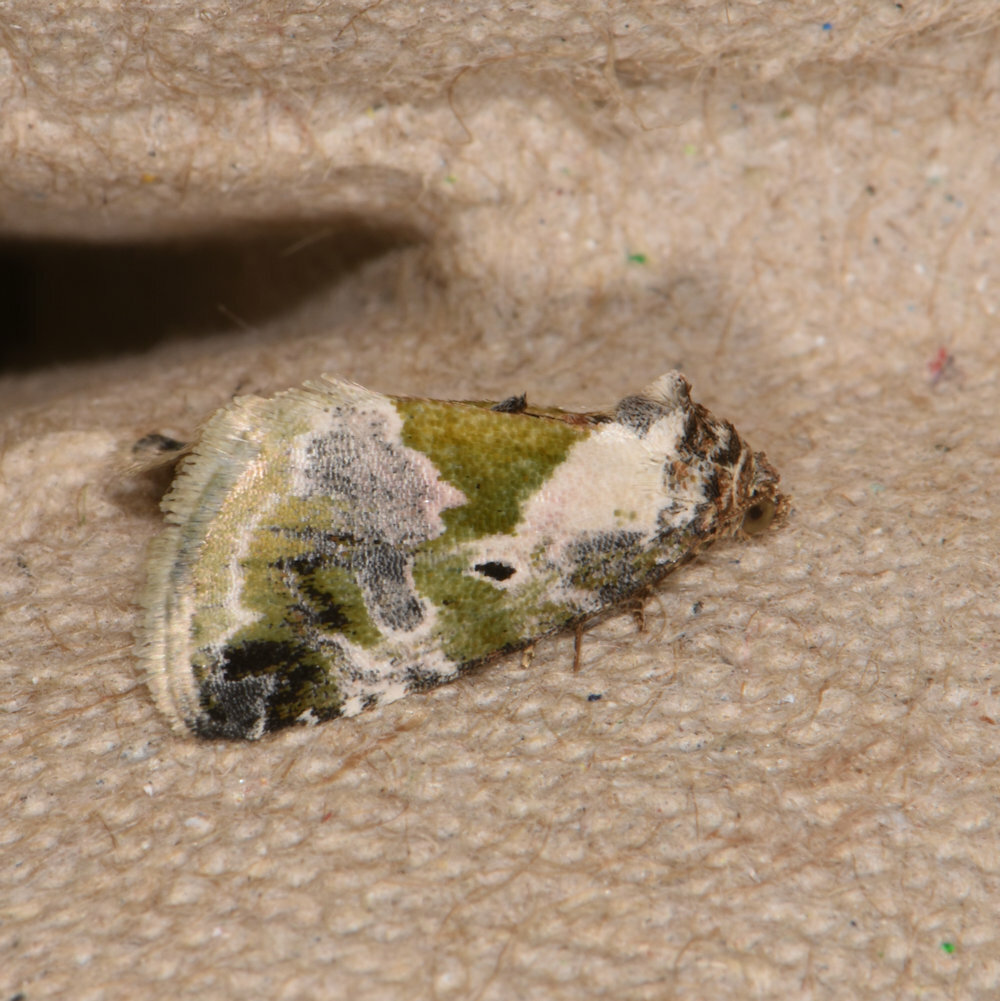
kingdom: Animalia
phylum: Arthropoda
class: Insecta
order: Lepidoptera
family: Noctuidae
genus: Maliattha
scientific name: Maliattha synochitis
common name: Black-dotted glyph
